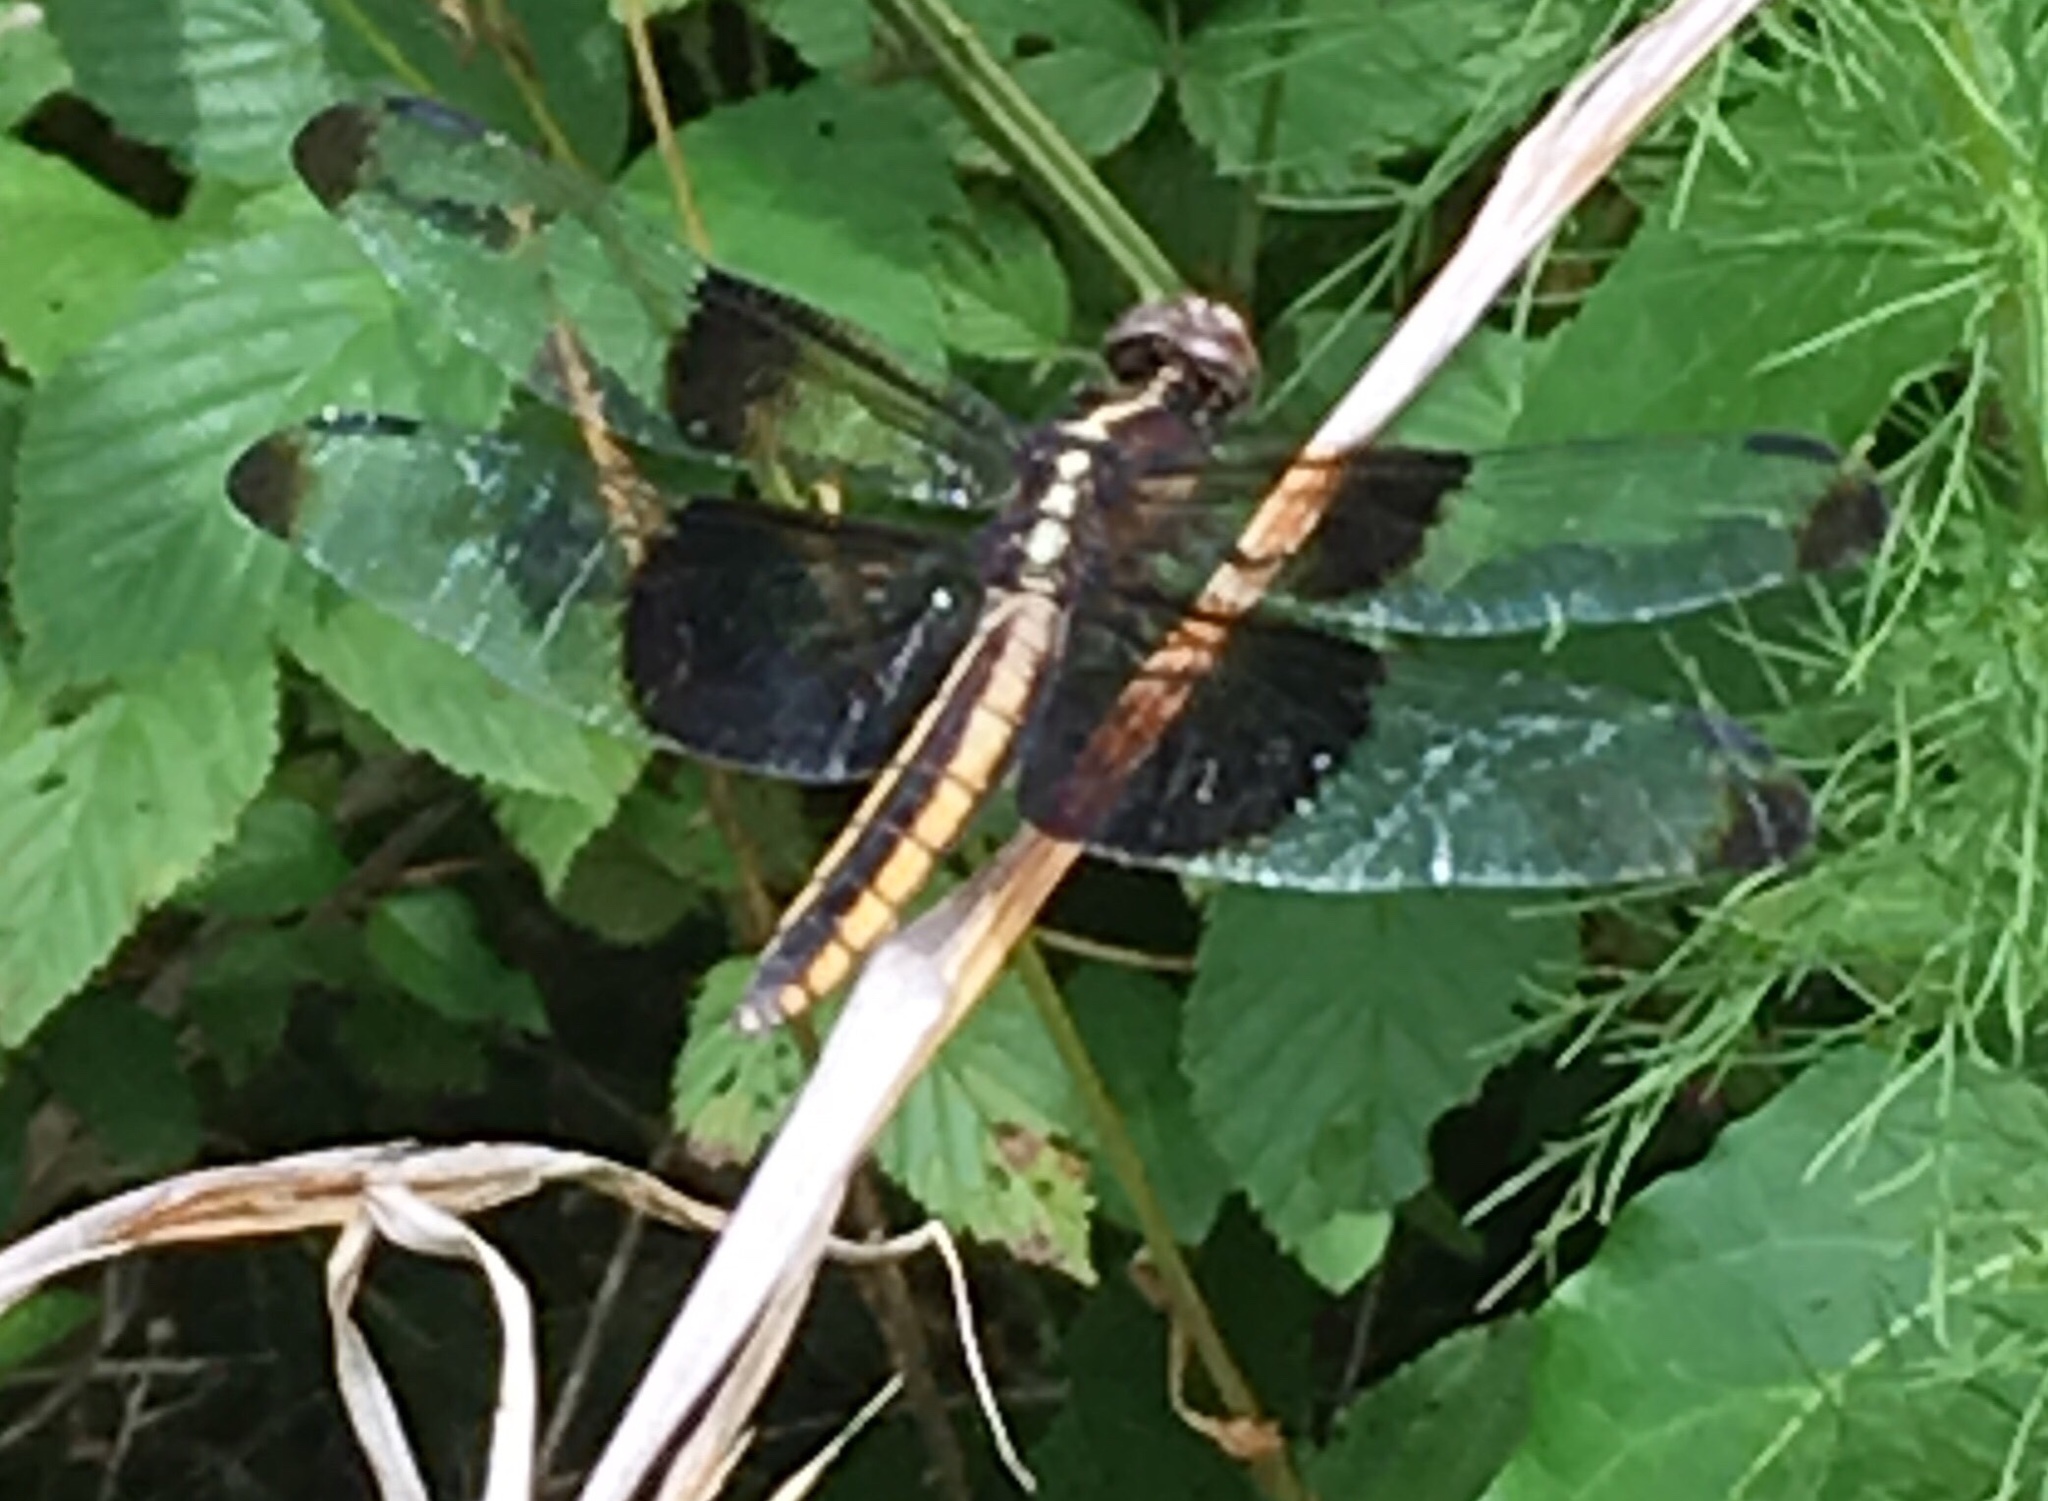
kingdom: Animalia
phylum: Arthropoda
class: Insecta
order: Odonata
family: Libellulidae
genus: Libellula
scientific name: Libellula luctuosa
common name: Widow skimmer
